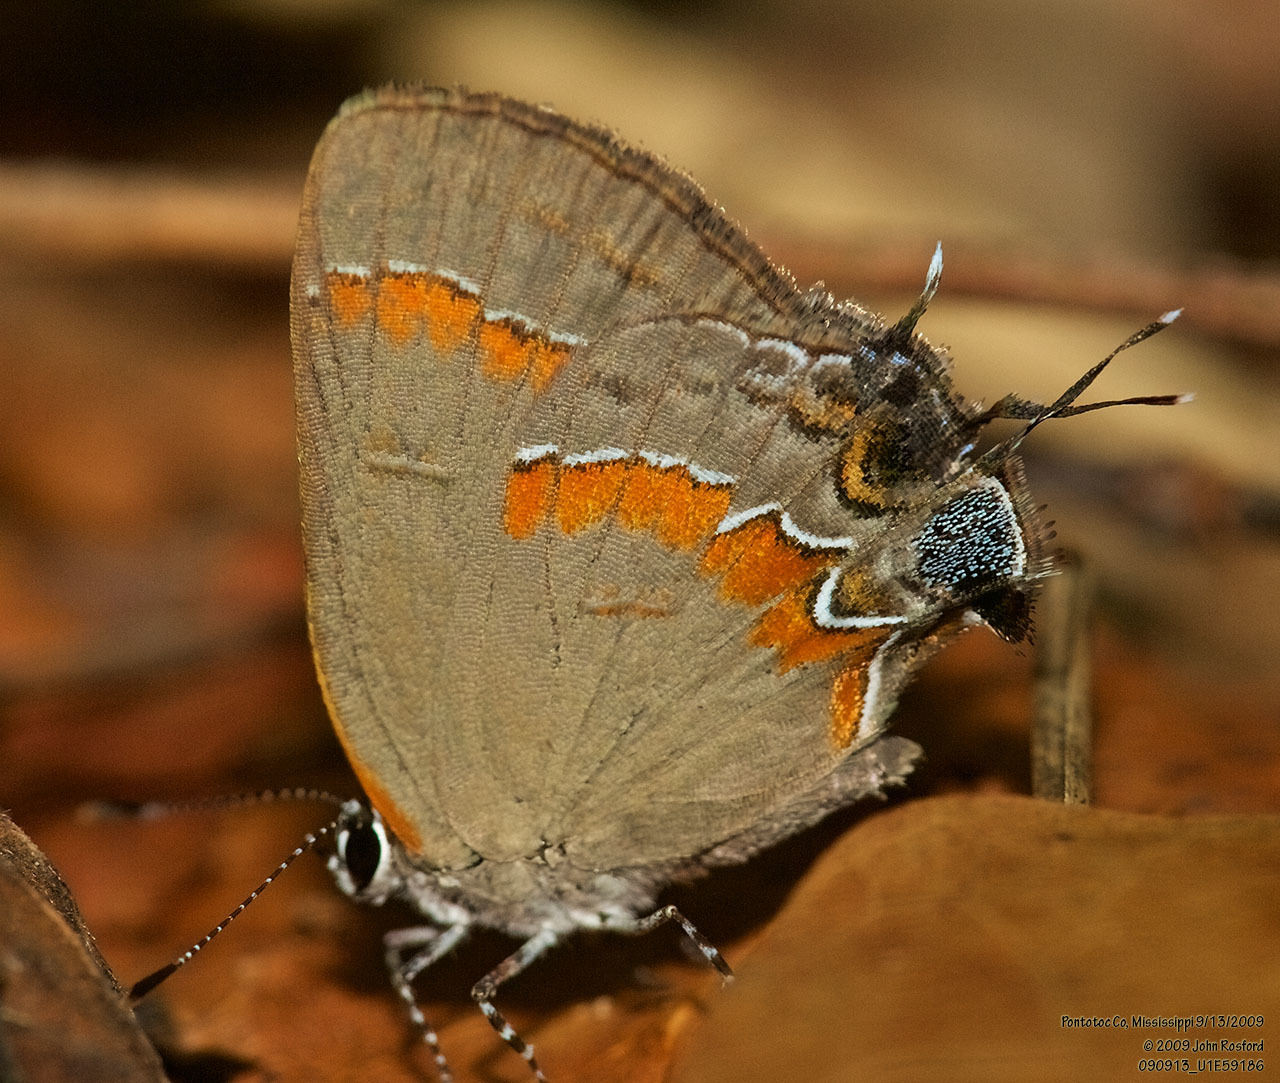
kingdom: Animalia
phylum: Arthropoda
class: Insecta
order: Lepidoptera
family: Lycaenidae
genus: Calycopis
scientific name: Calycopis cecrops
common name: Red-banded hairstreak
